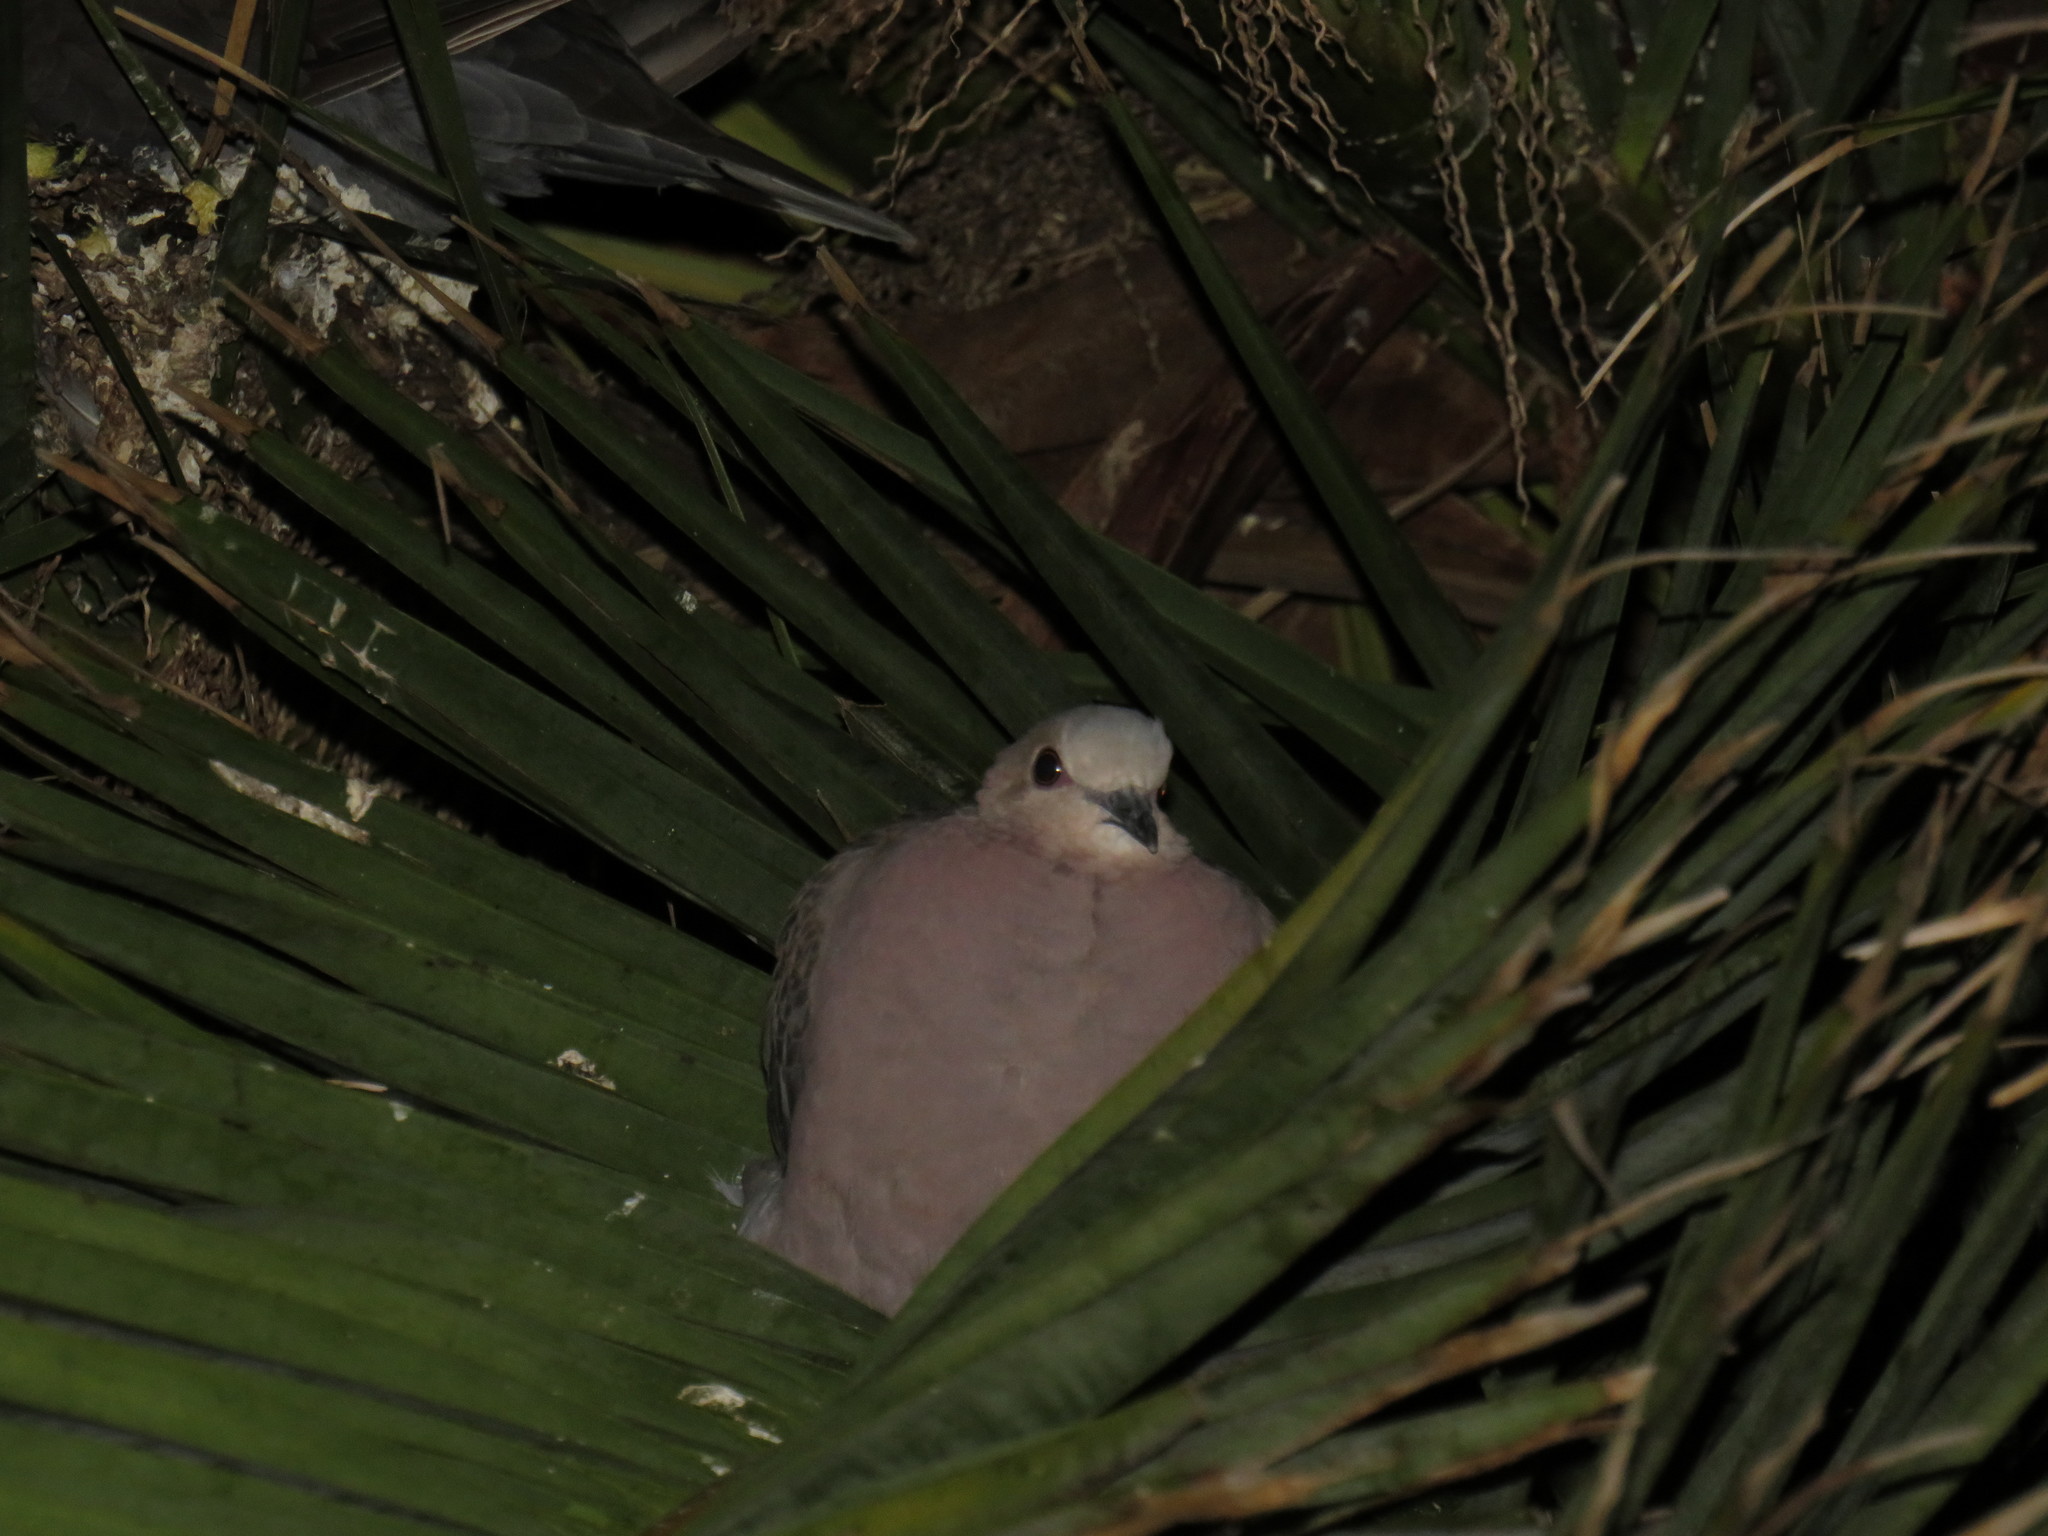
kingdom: Animalia
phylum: Chordata
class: Aves
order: Columbiformes
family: Columbidae
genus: Streptopelia
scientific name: Streptopelia semitorquata
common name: Red-eyed dove
